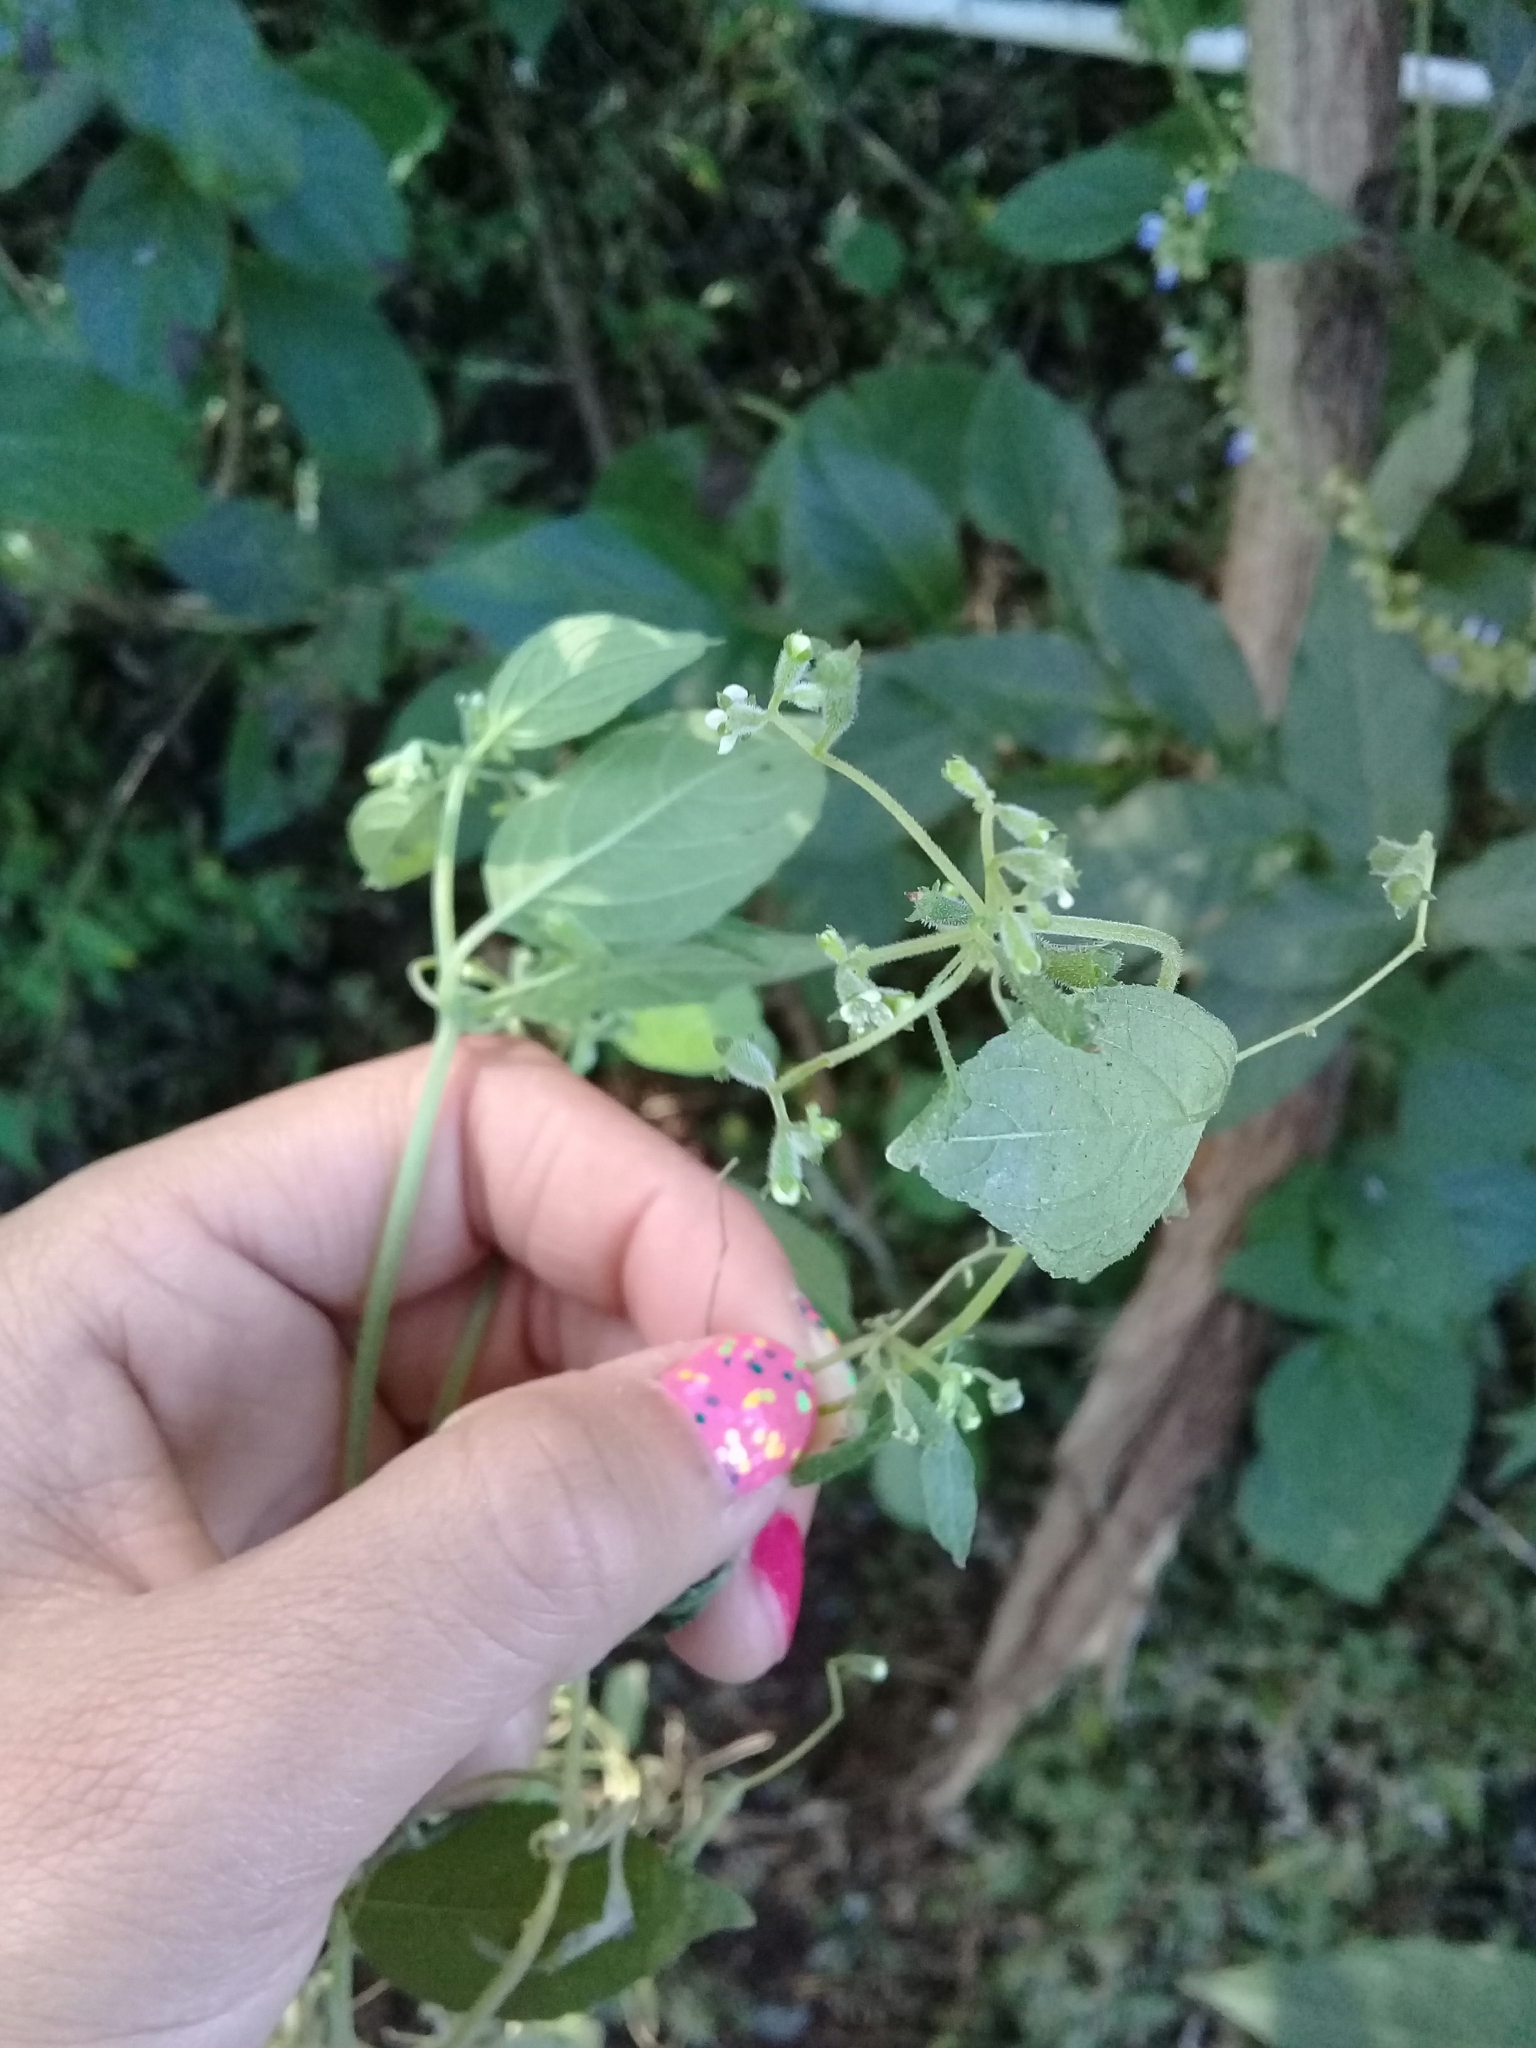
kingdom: Plantae
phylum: Tracheophyta
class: Magnoliopsida
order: Cornales
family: Loasaceae
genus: Klaprothia
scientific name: Klaprothia fasciculata
